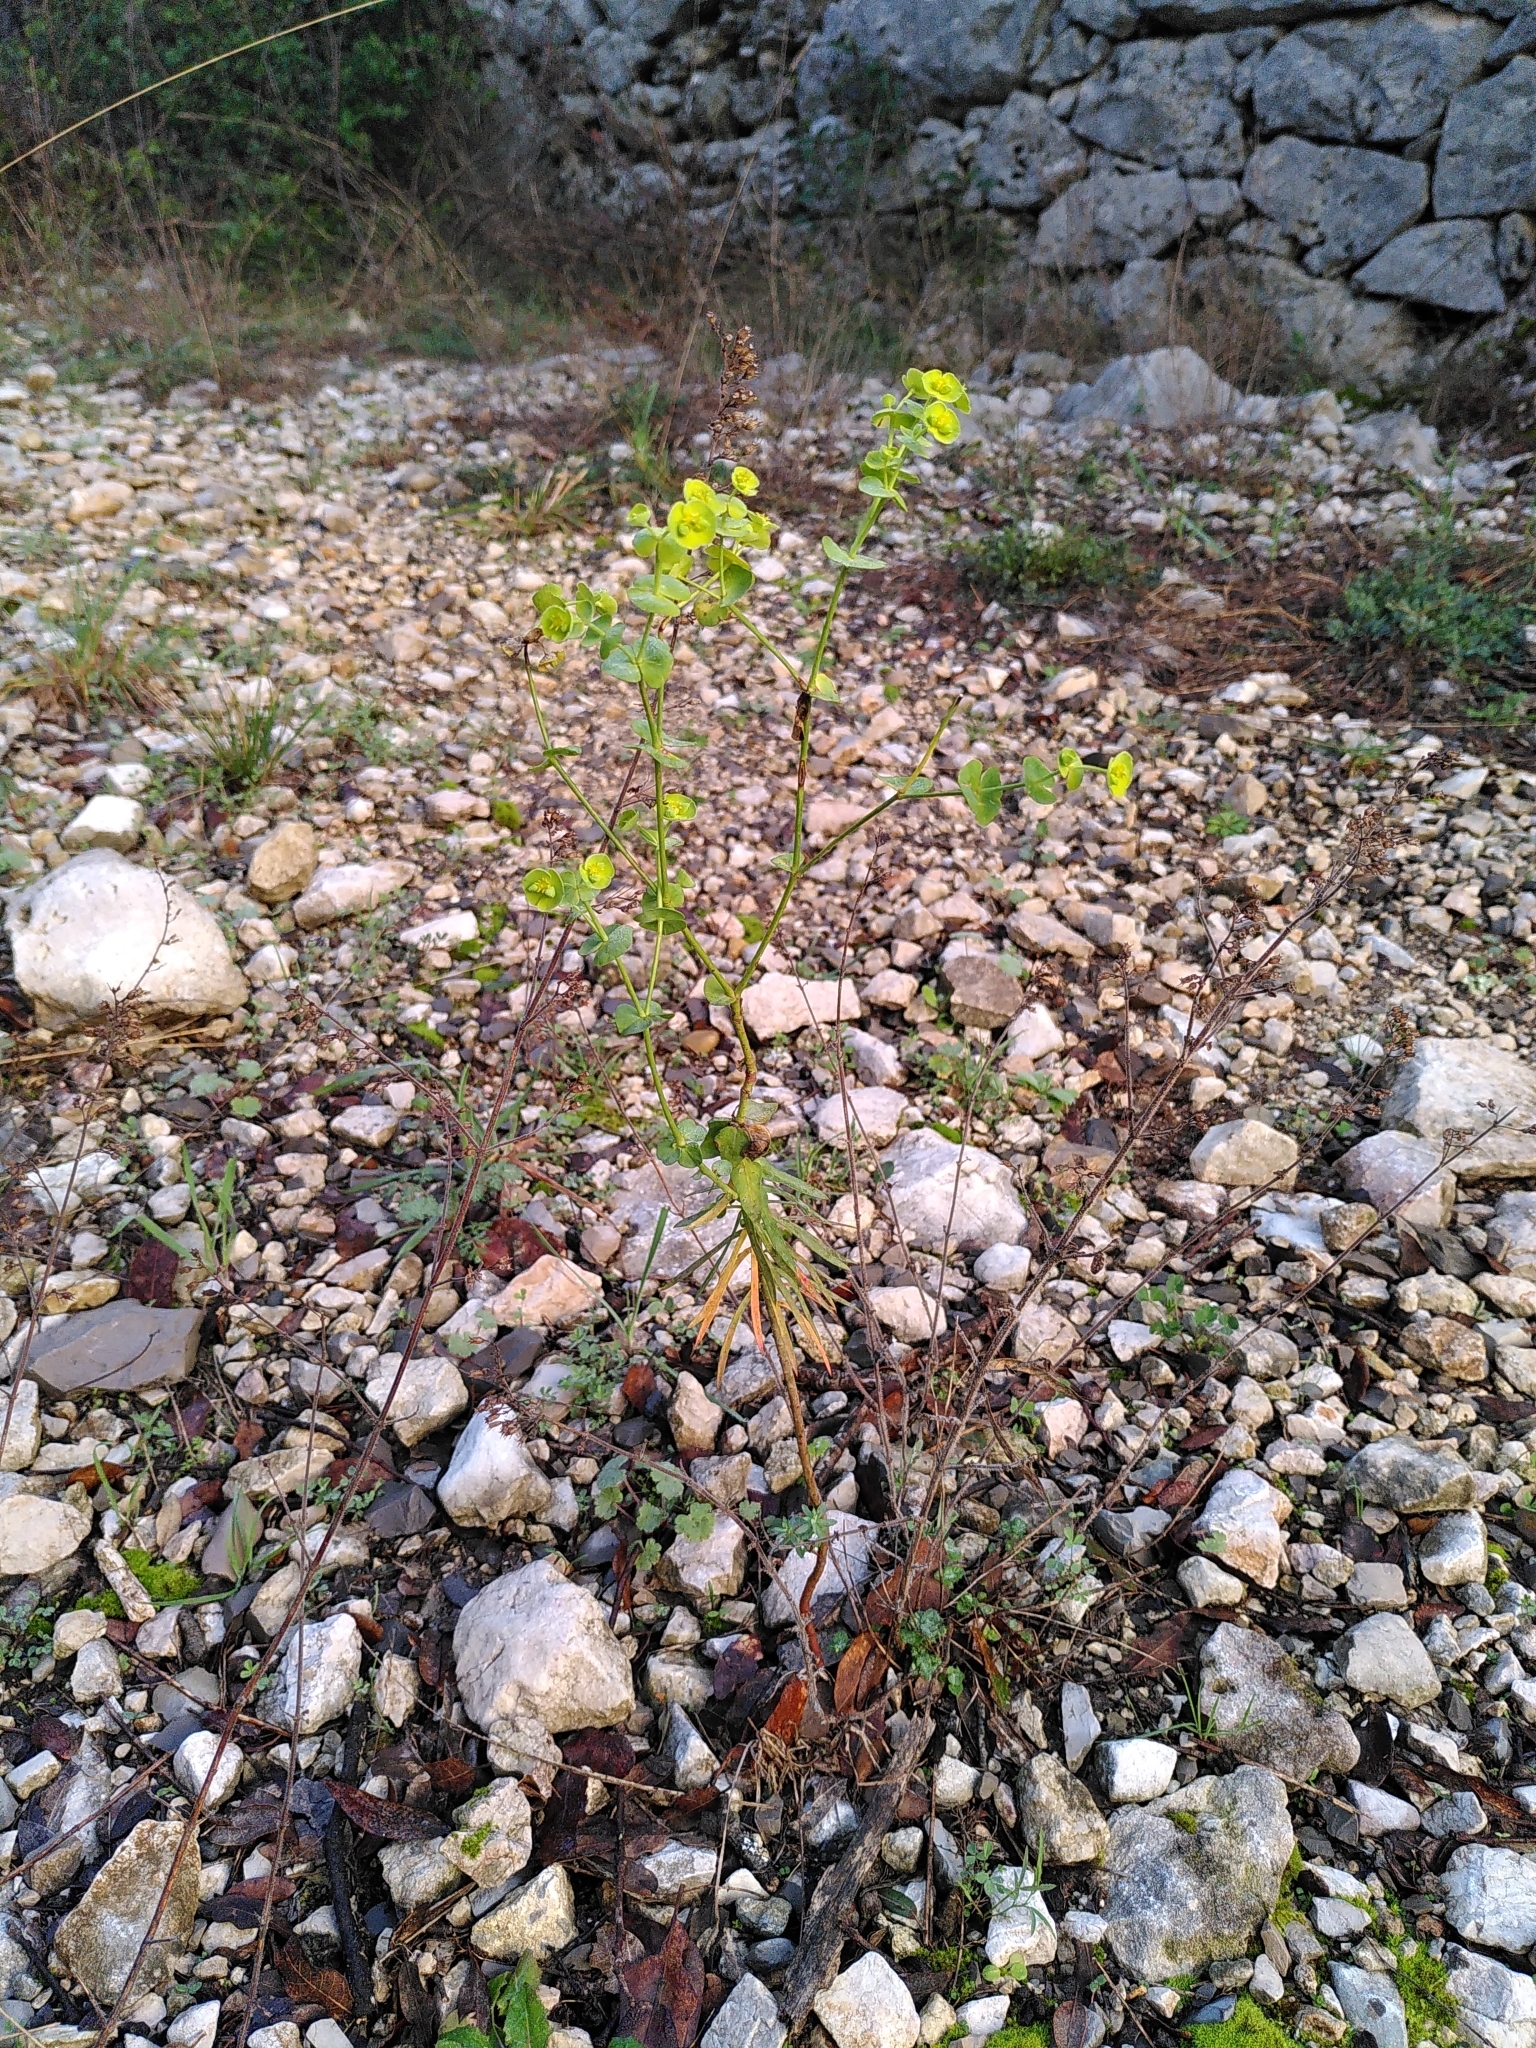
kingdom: Plantae
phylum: Tracheophyta
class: Magnoliopsida
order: Malpighiales
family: Euphorbiaceae
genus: Euphorbia
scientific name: Euphorbia segetalis
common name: Corn spurge
